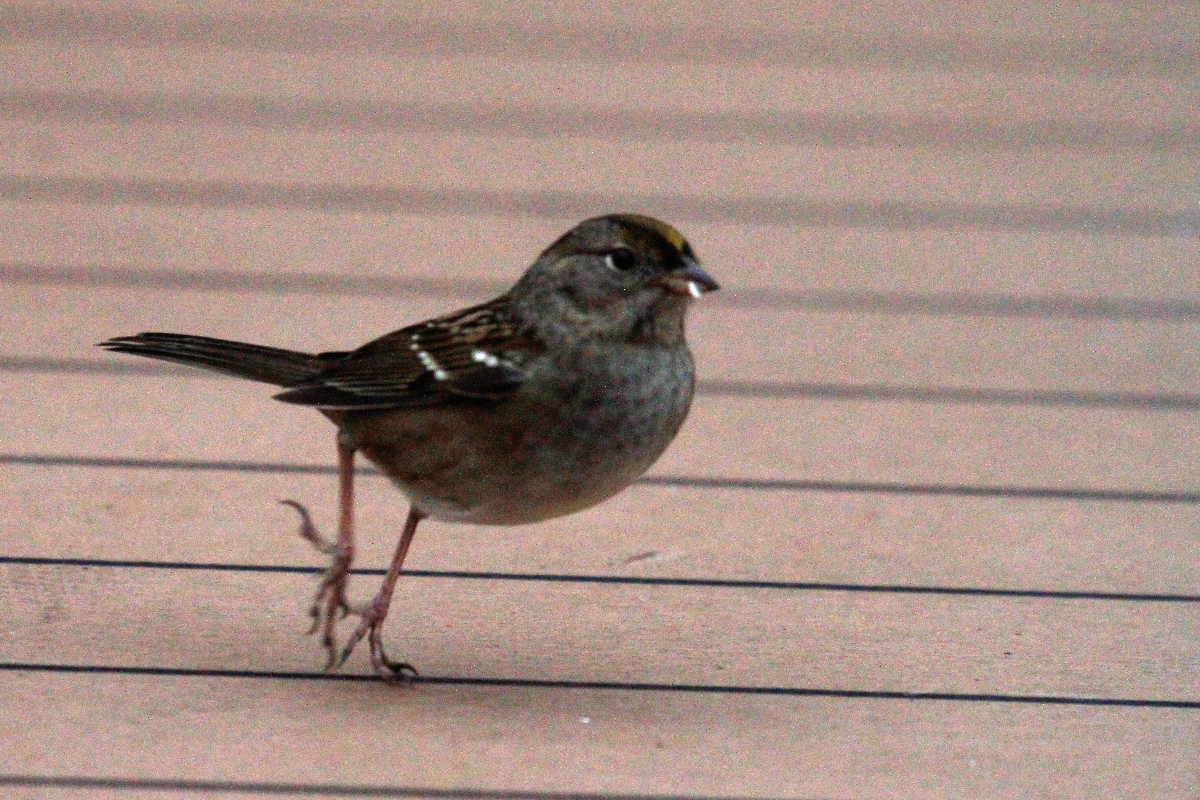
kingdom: Animalia
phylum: Chordata
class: Aves
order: Passeriformes
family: Passerellidae
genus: Zonotrichia
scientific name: Zonotrichia atricapilla
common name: Golden-crowned sparrow
